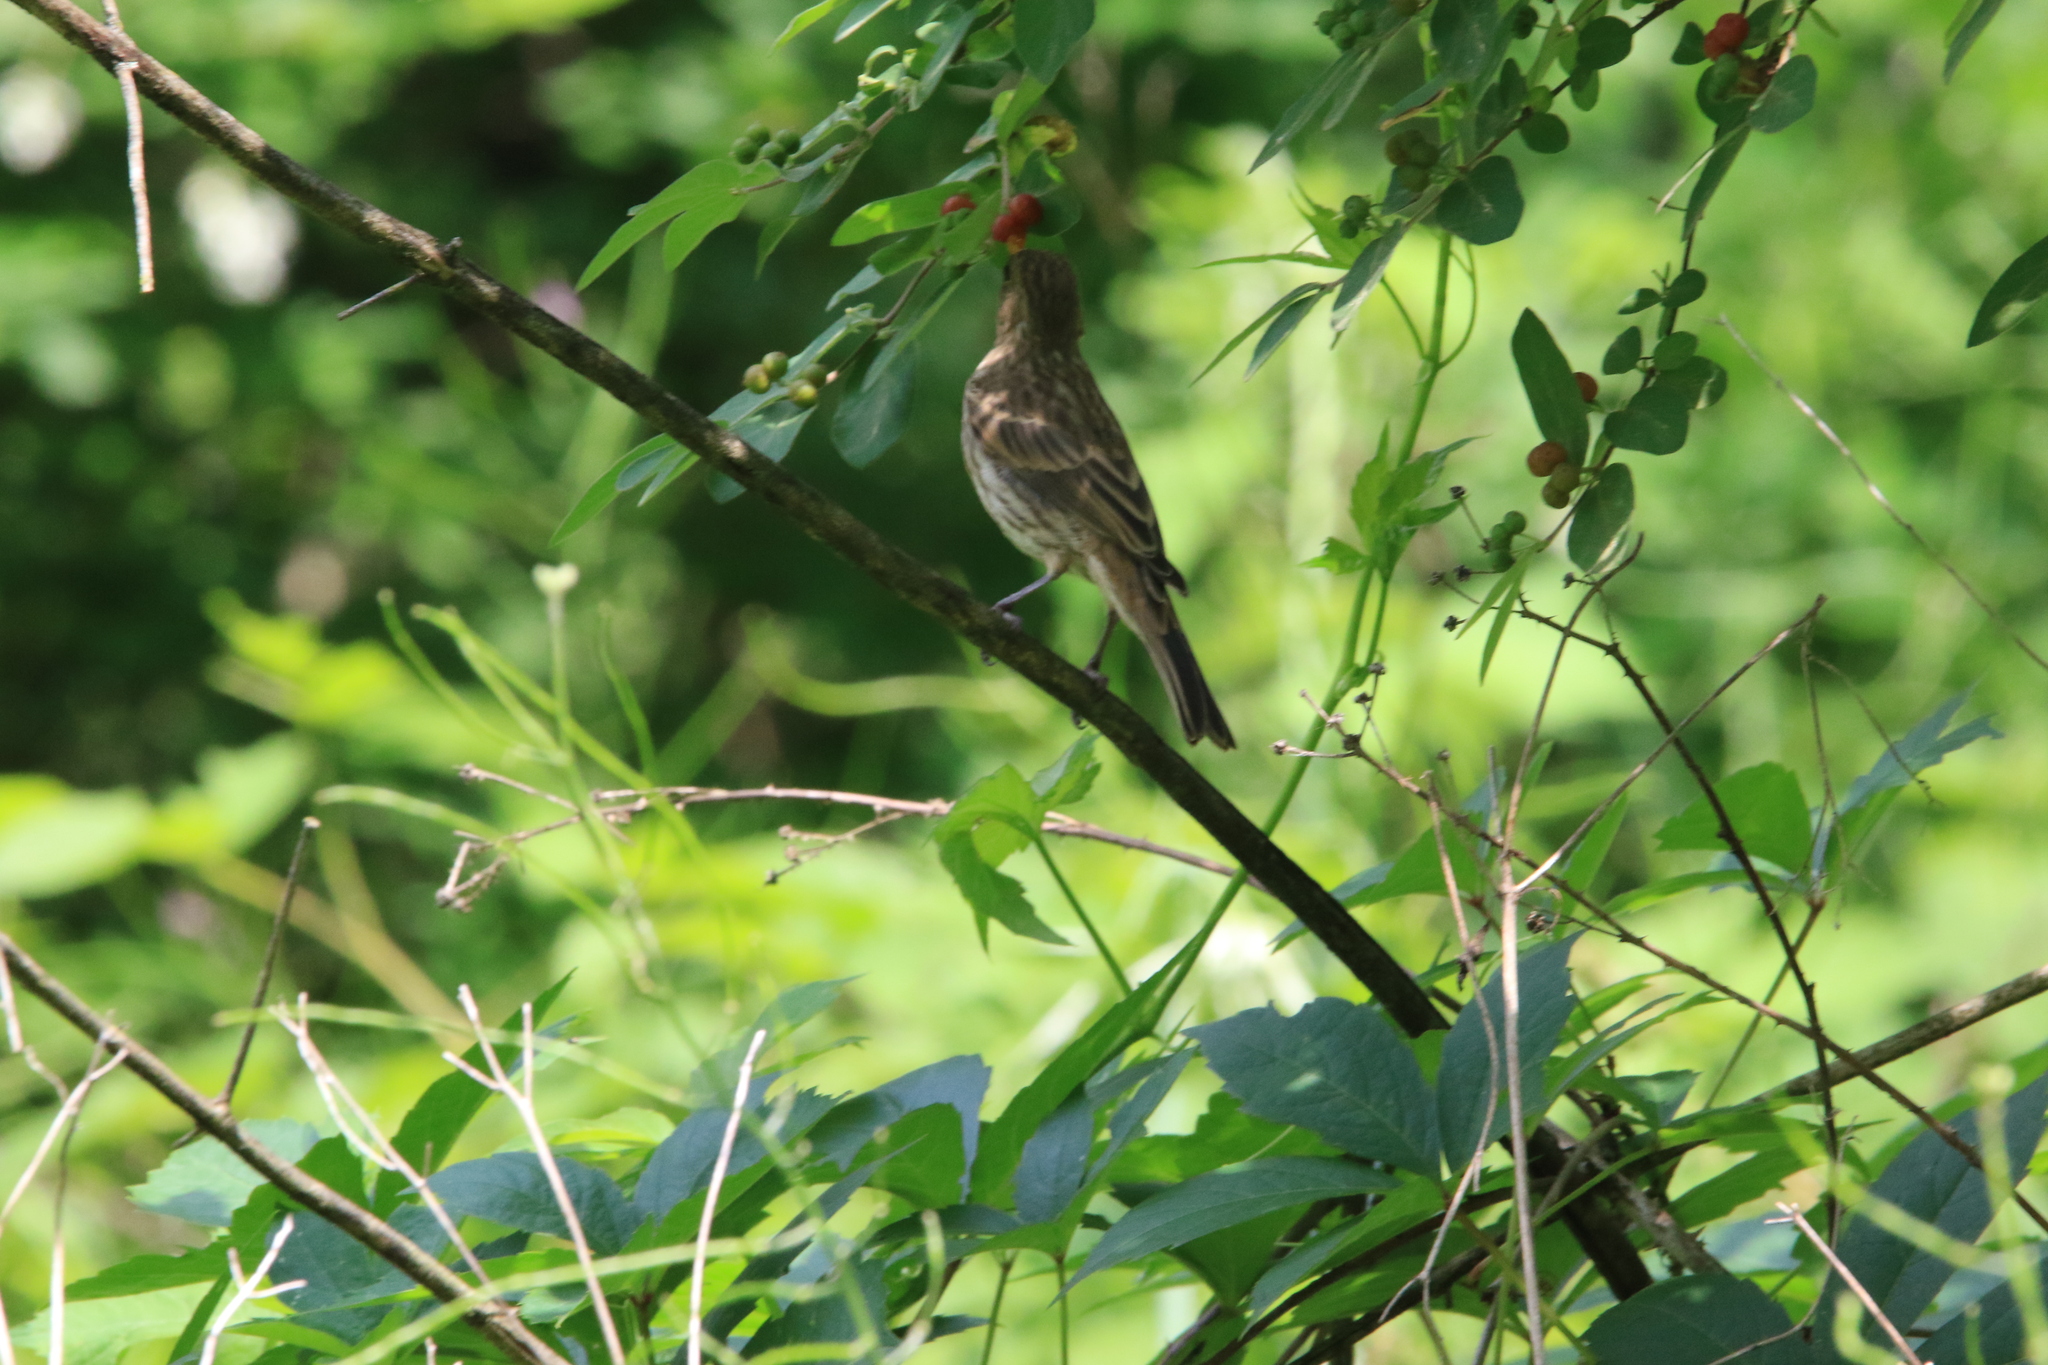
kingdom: Animalia
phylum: Chordata
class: Aves
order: Passeriformes
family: Fringillidae
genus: Haemorhous
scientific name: Haemorhous mexicanus
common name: House finch
